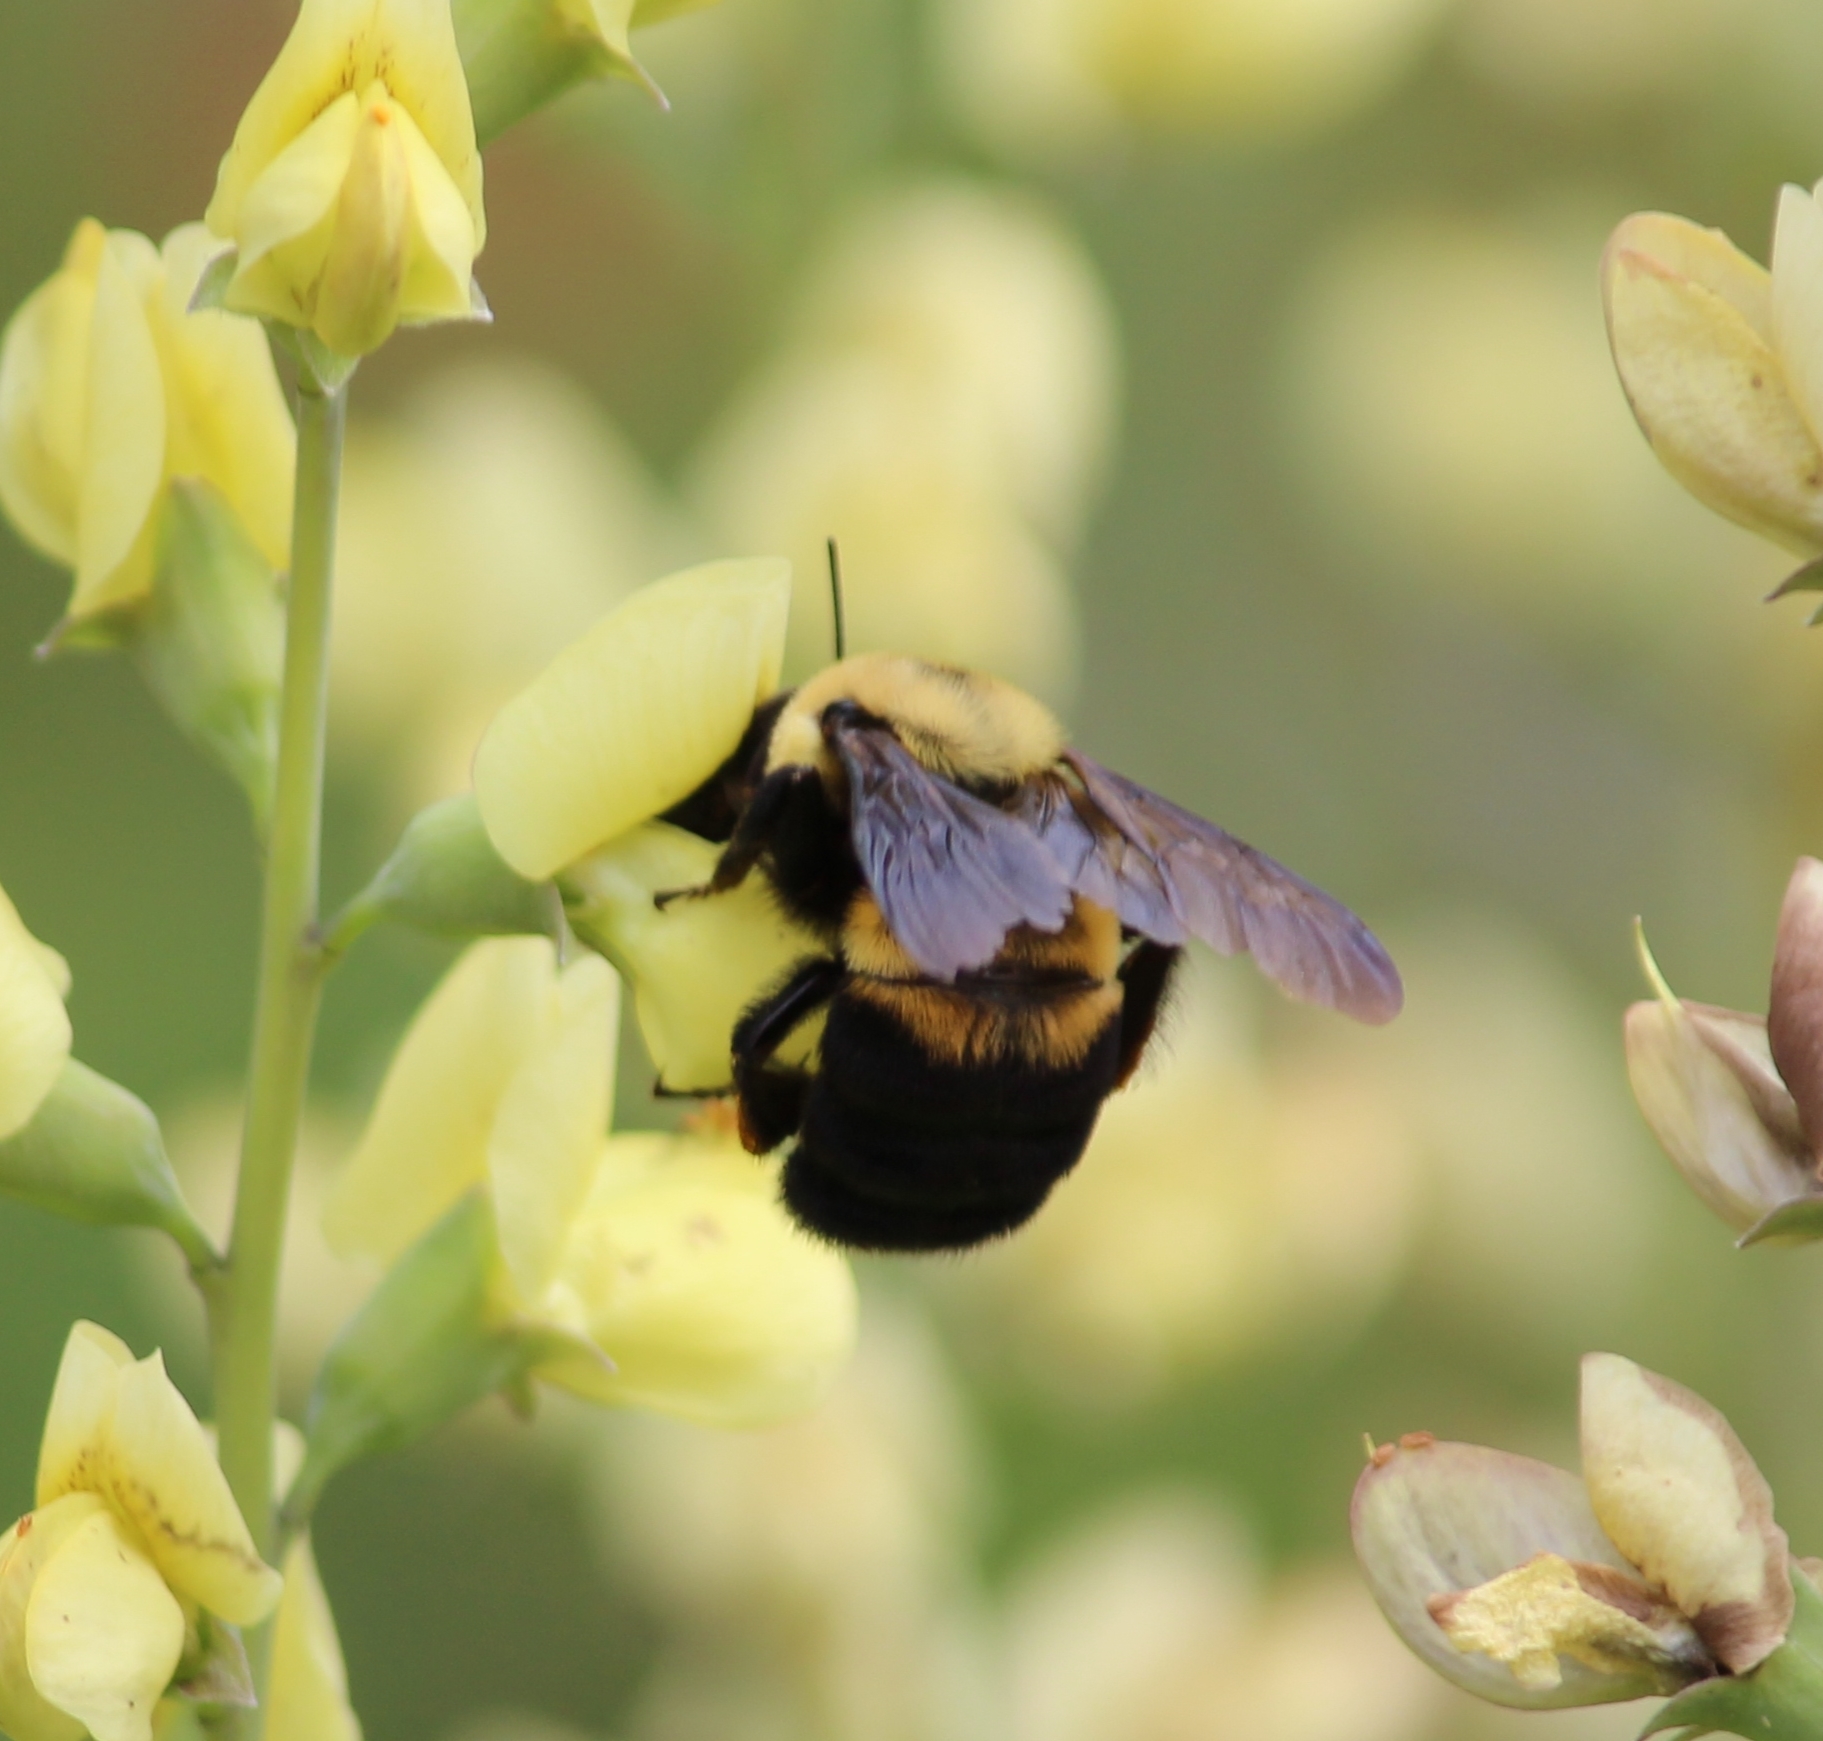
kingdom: Animalia
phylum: Arthropoda
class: Insecta
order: Hymenoptera
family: Apidae
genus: Bombus
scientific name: Bombus griseocollis
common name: Brown-belted bumble bee
